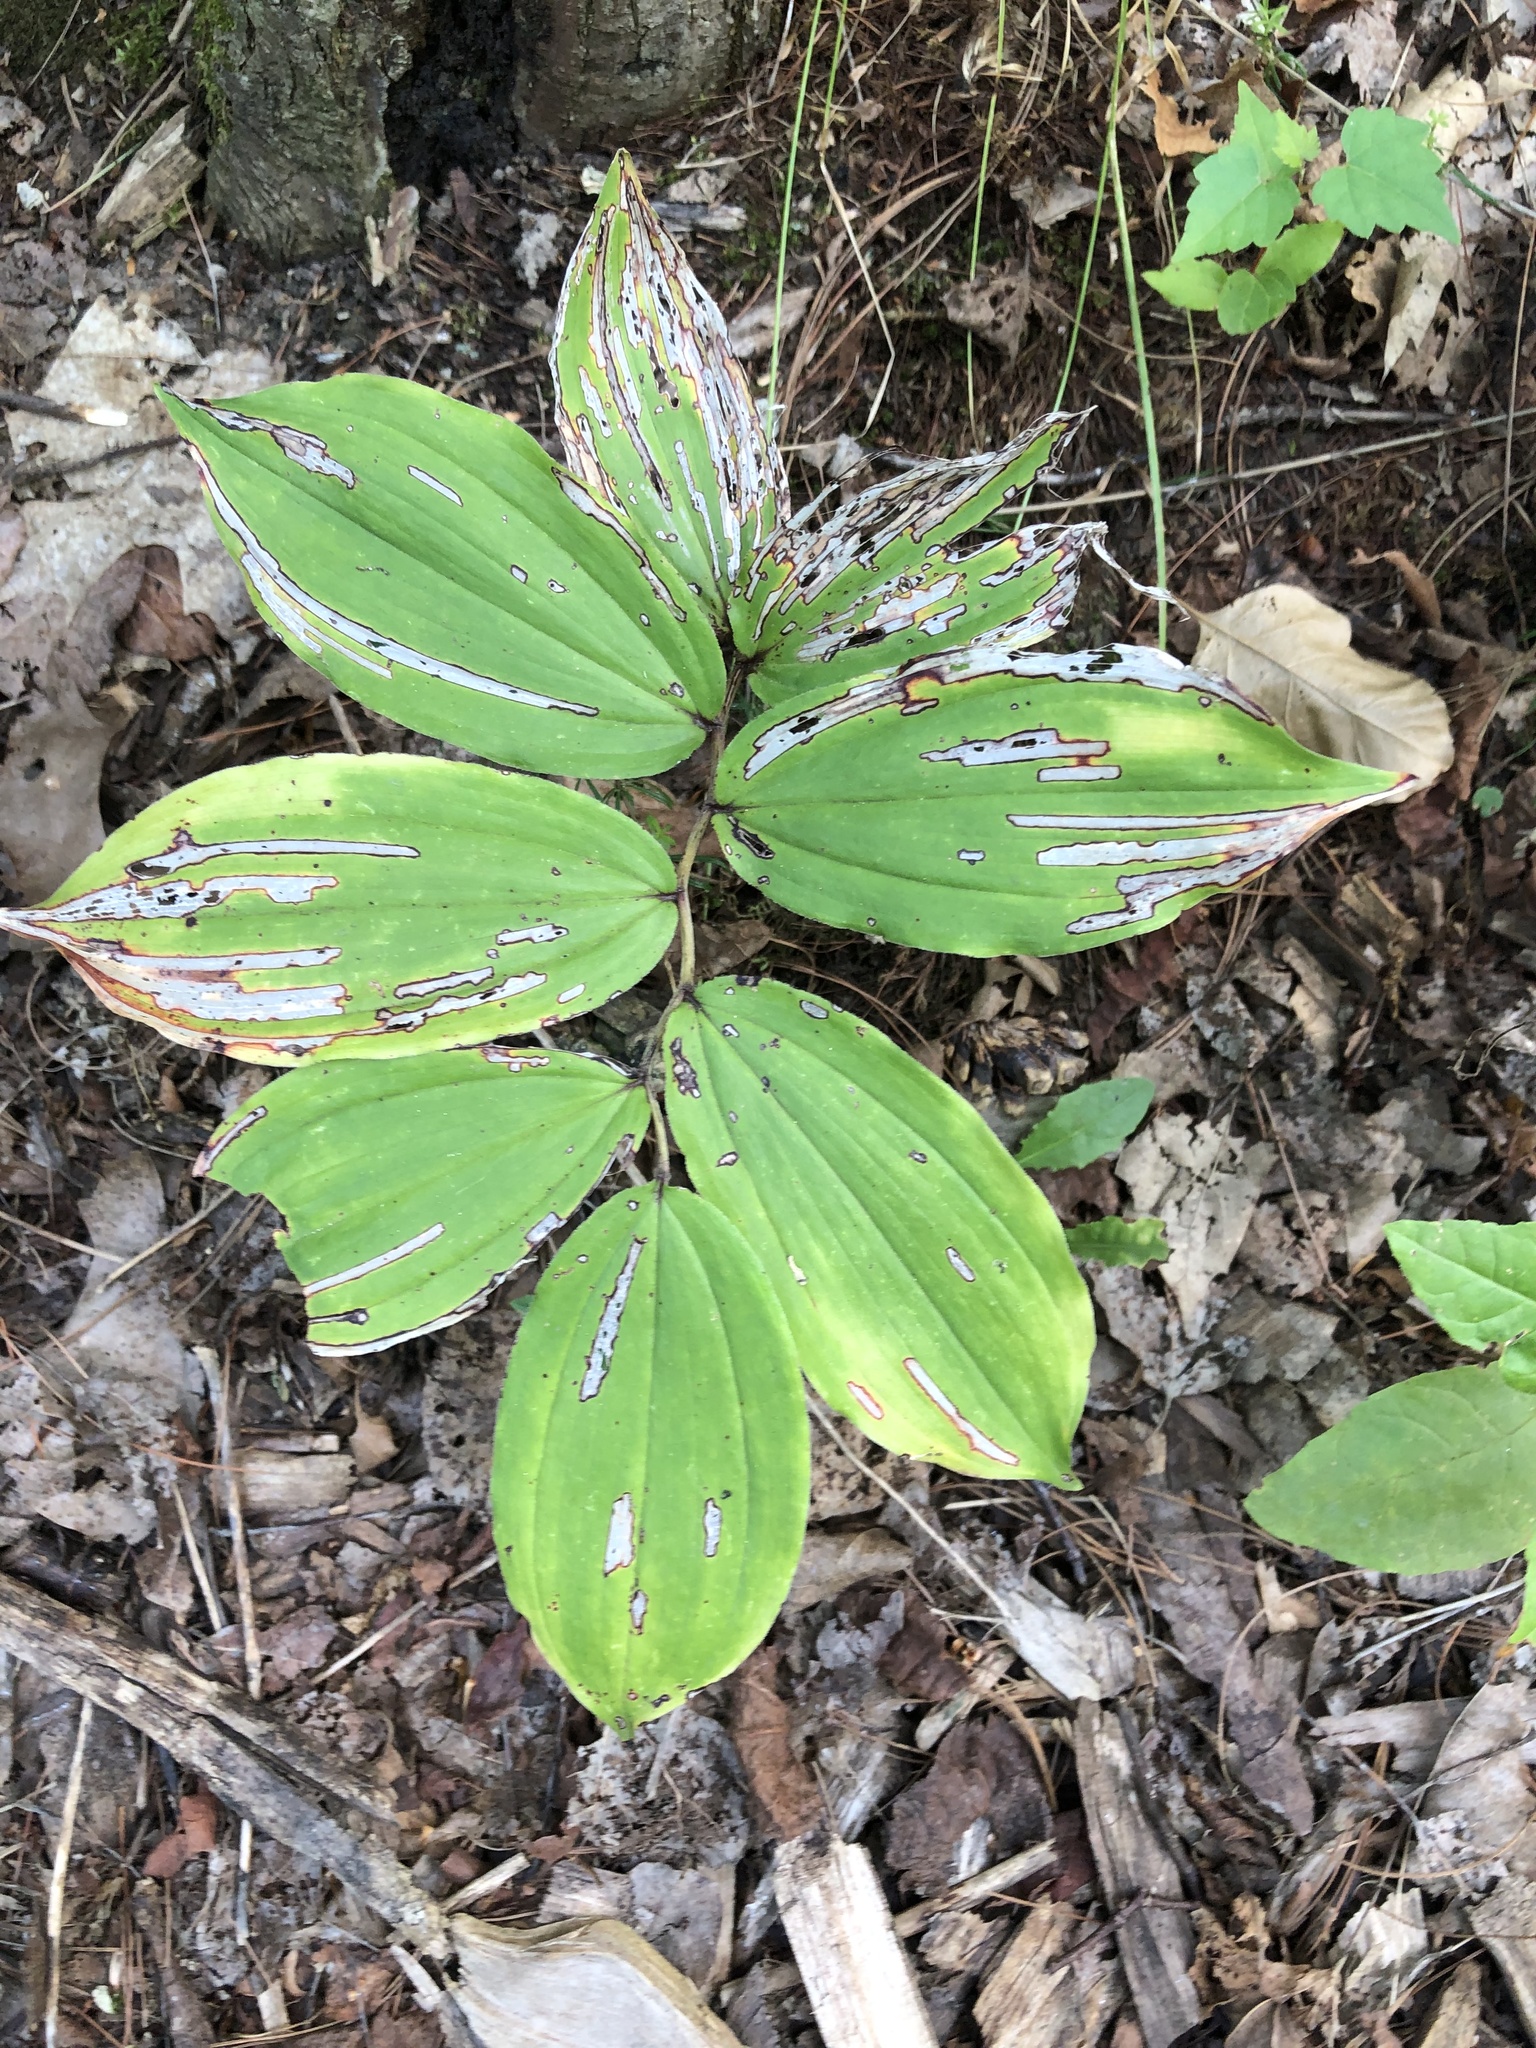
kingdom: Plantae
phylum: Tracheophyta
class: Liliopsida
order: Asparagales
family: Asparagaceae
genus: Maianthemum
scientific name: Maianthemum racemosum
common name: False spikenard
